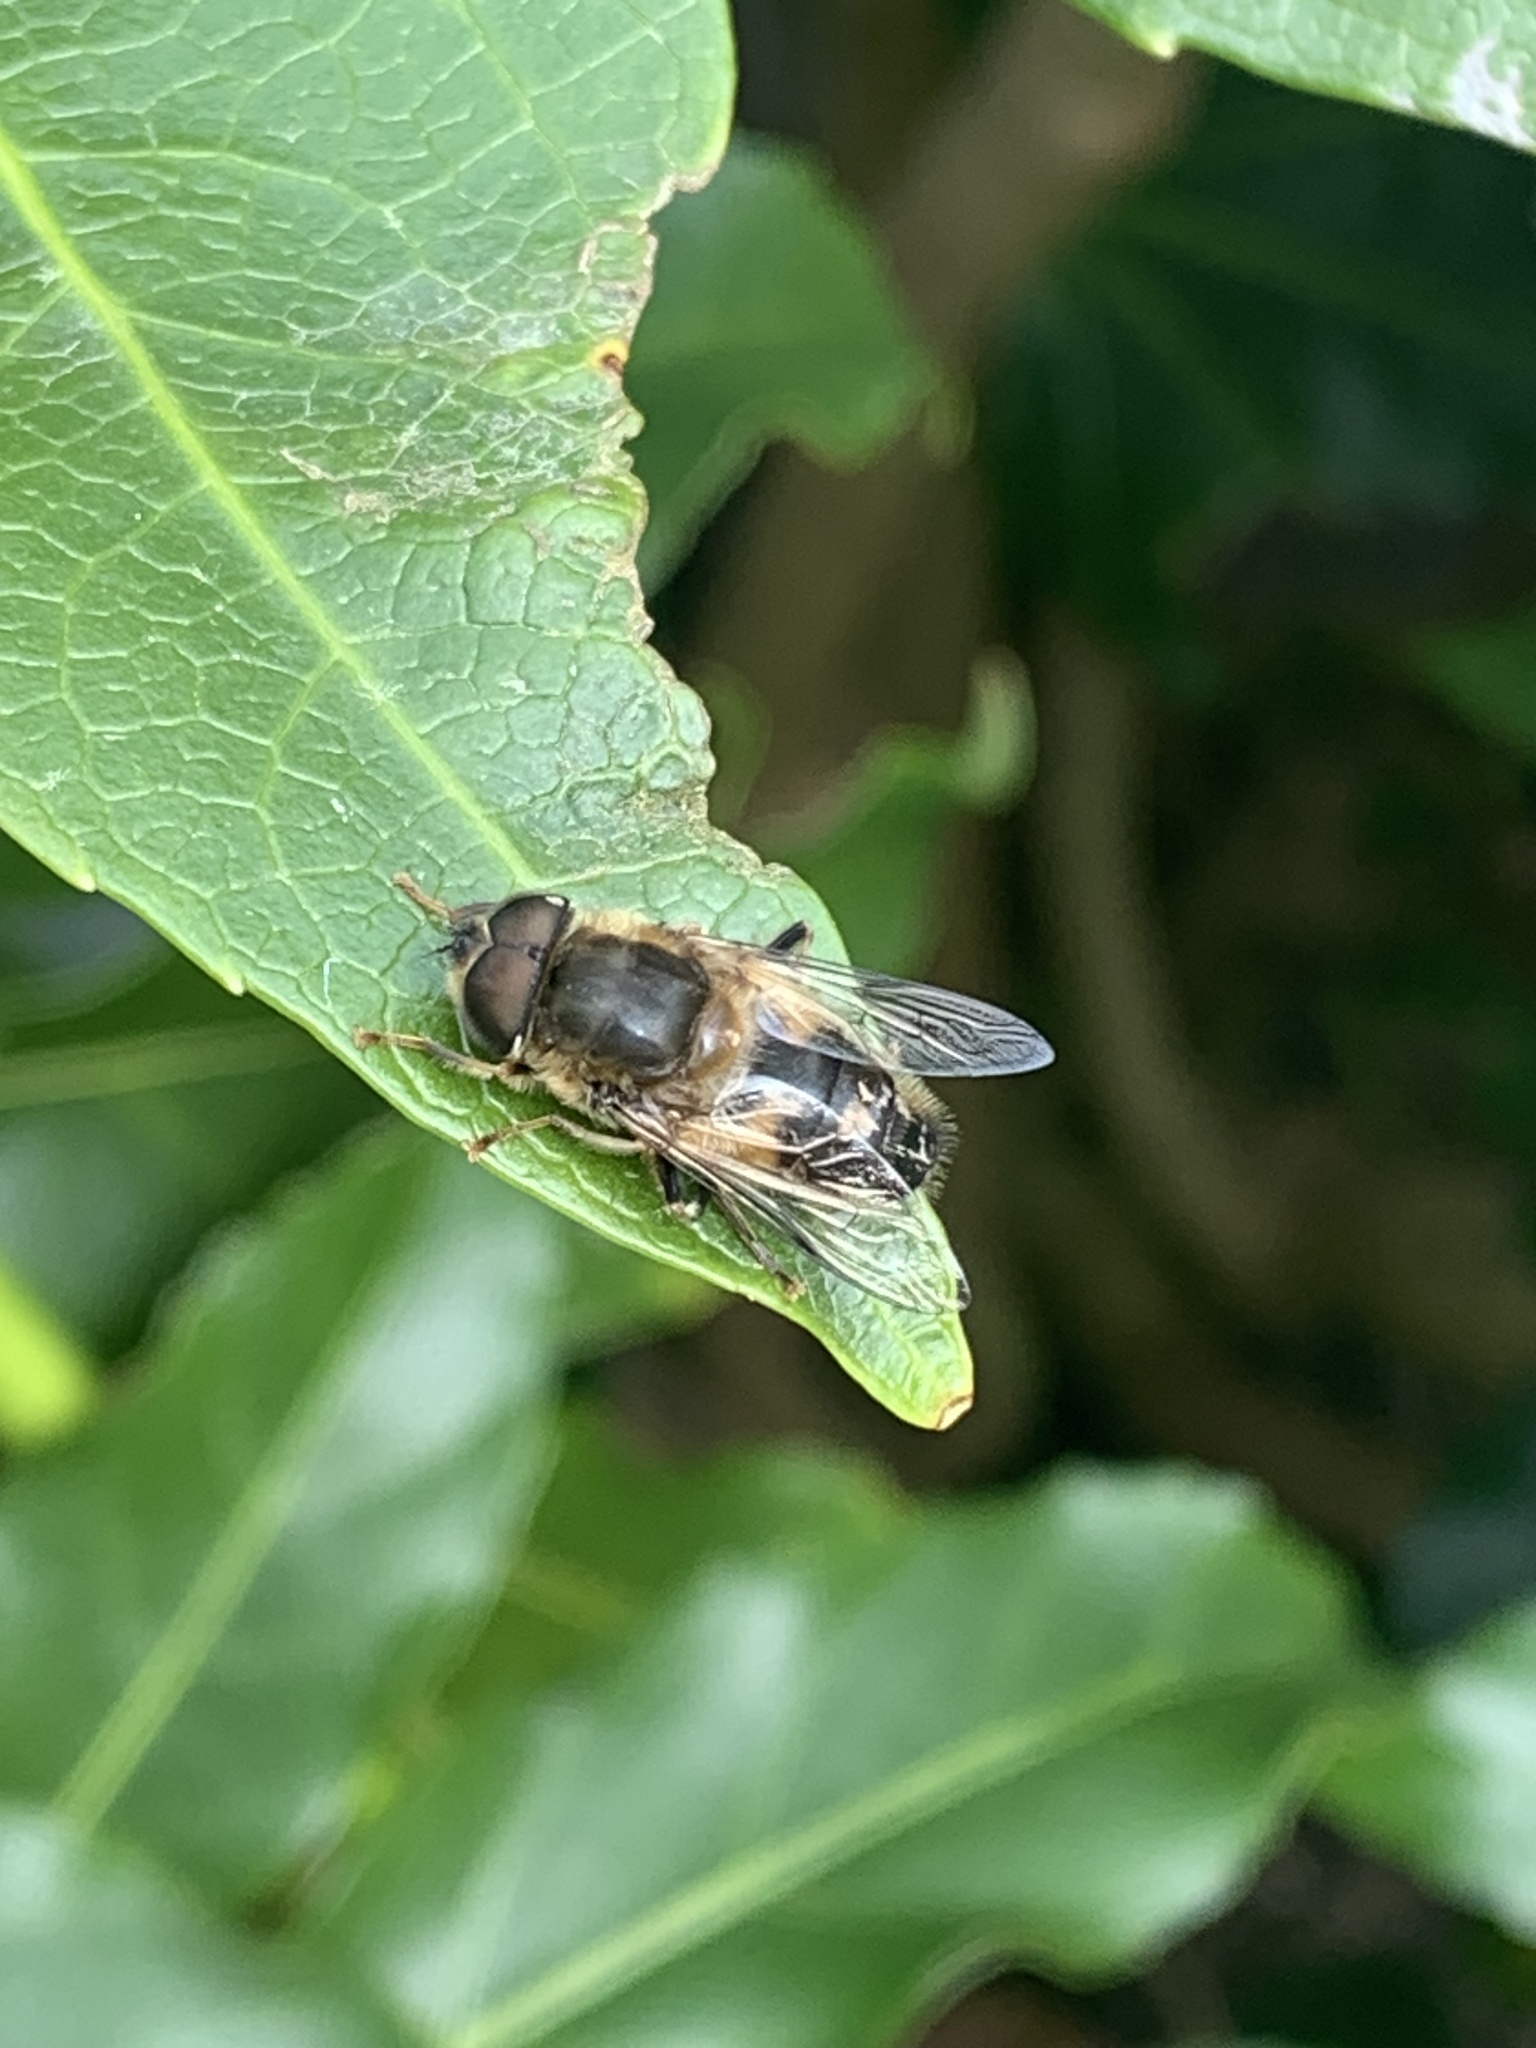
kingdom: Animalia
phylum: Arthropoda
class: Insecta
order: Diptera
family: Syrphidae
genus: Eristalis
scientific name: Eristalis pertinax
